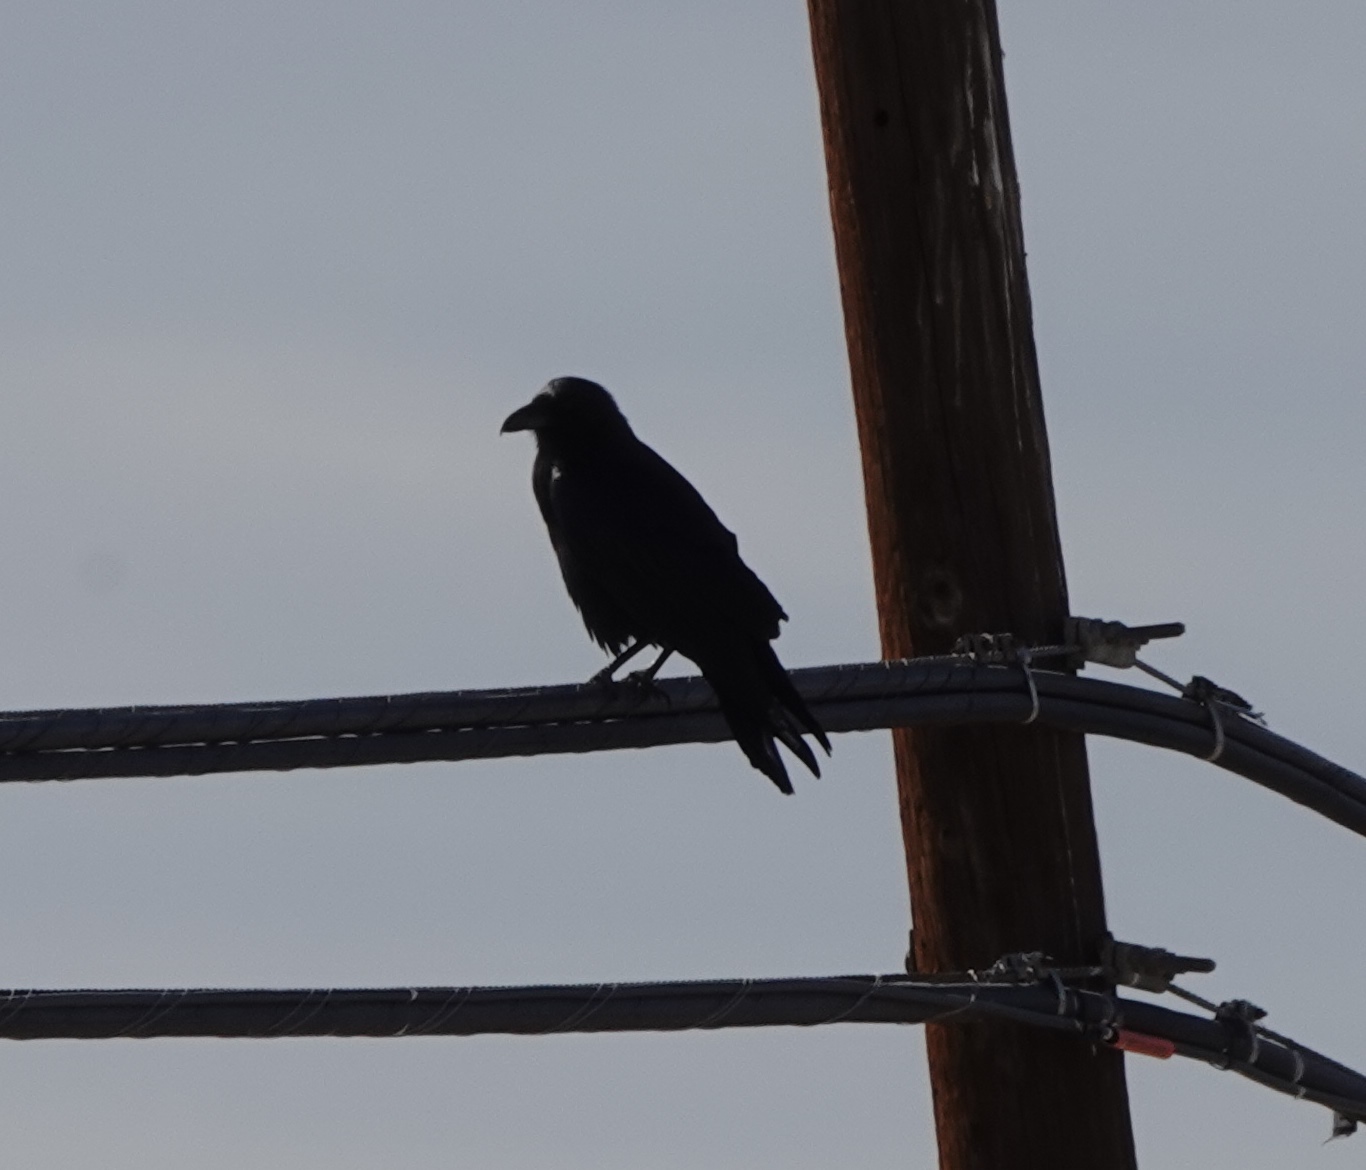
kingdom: Animalia
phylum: Chordata
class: Aves
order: Passeriformes
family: Corvidae
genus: Corvus
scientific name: Corvus corax
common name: Common raven
